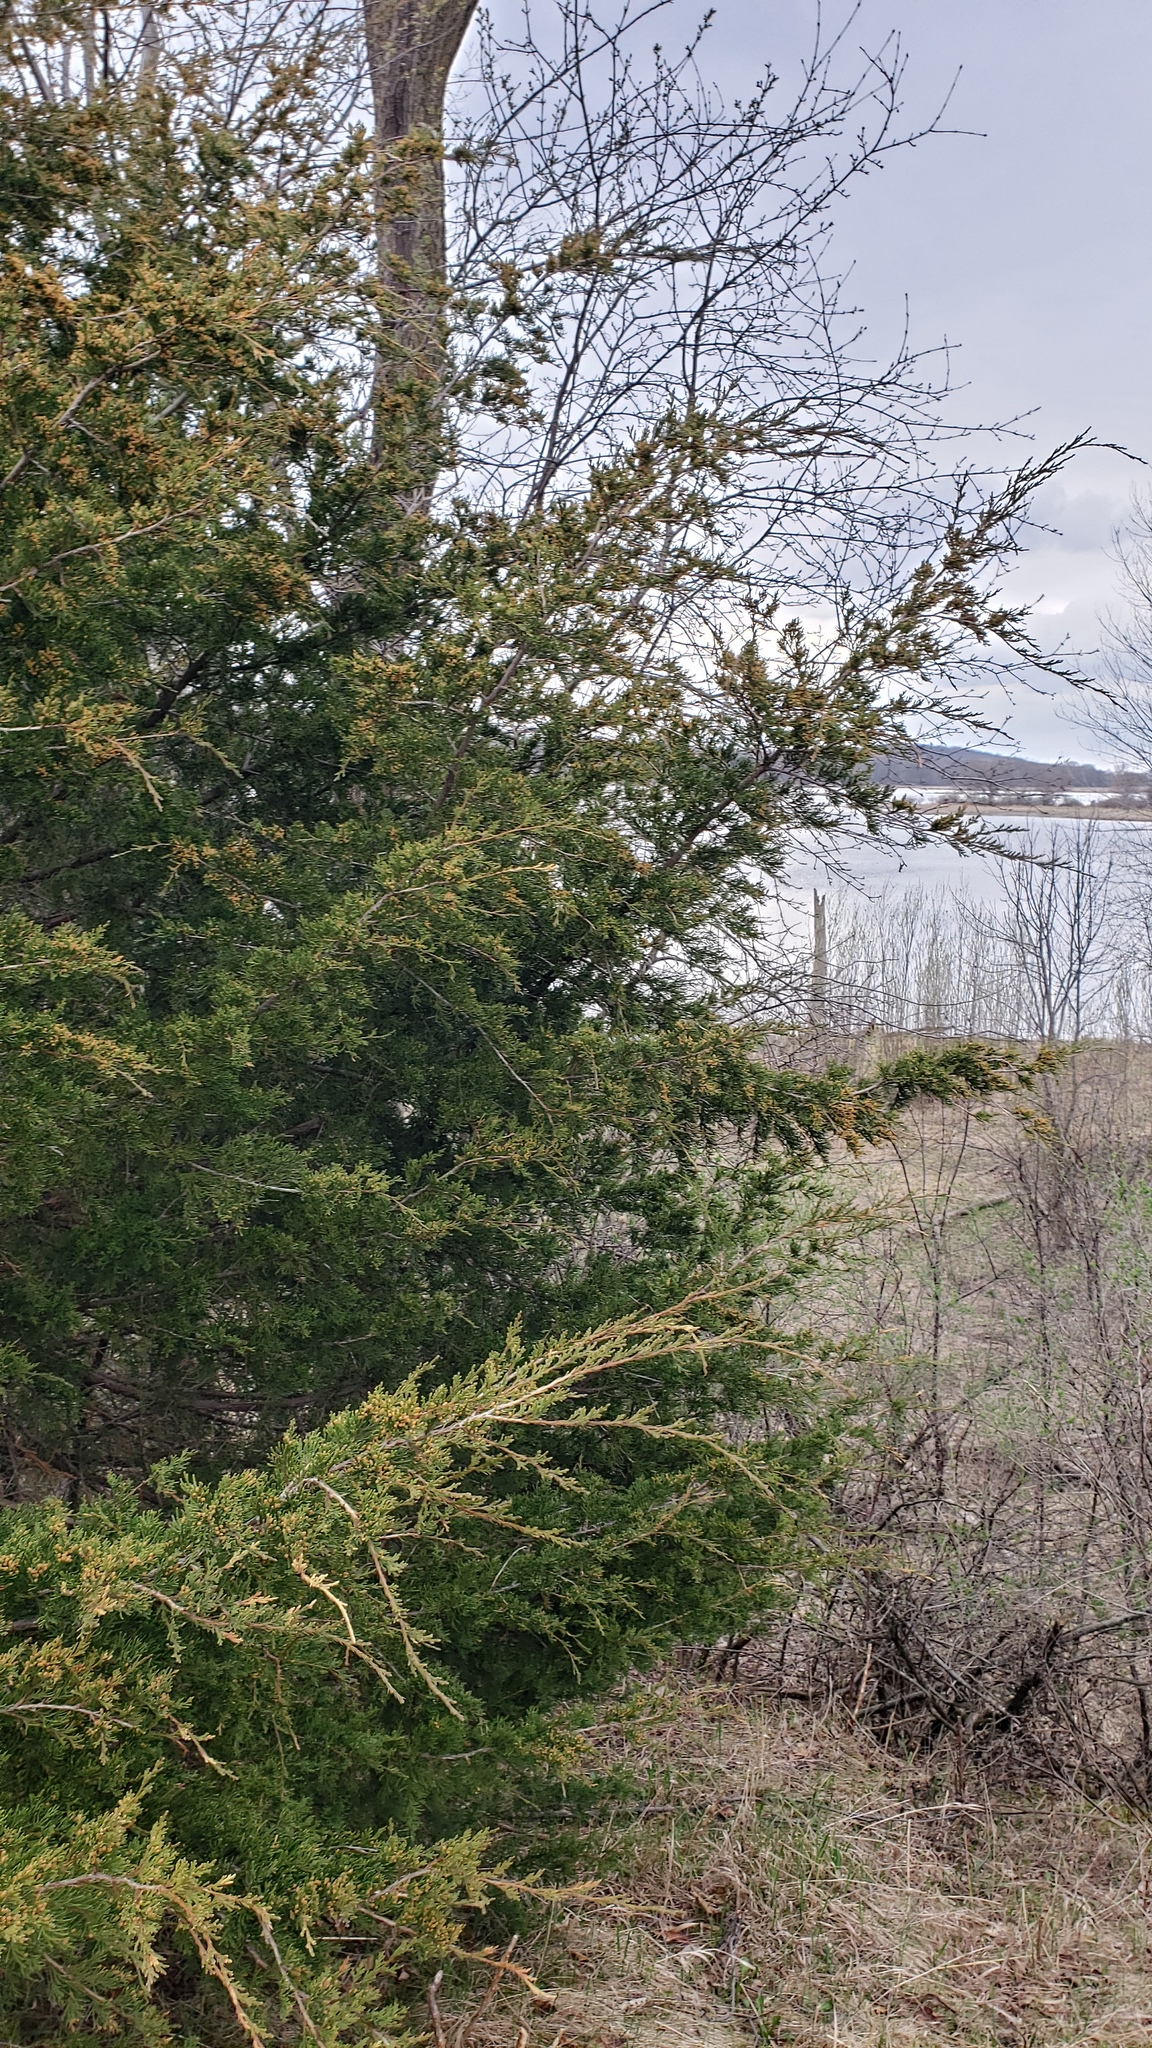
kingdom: Plantae
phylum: Tracheophyta
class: Pinopsida
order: Pinales
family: Cupressaceae
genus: Juniperus
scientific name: Juniperus virginiana
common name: Red juniper
